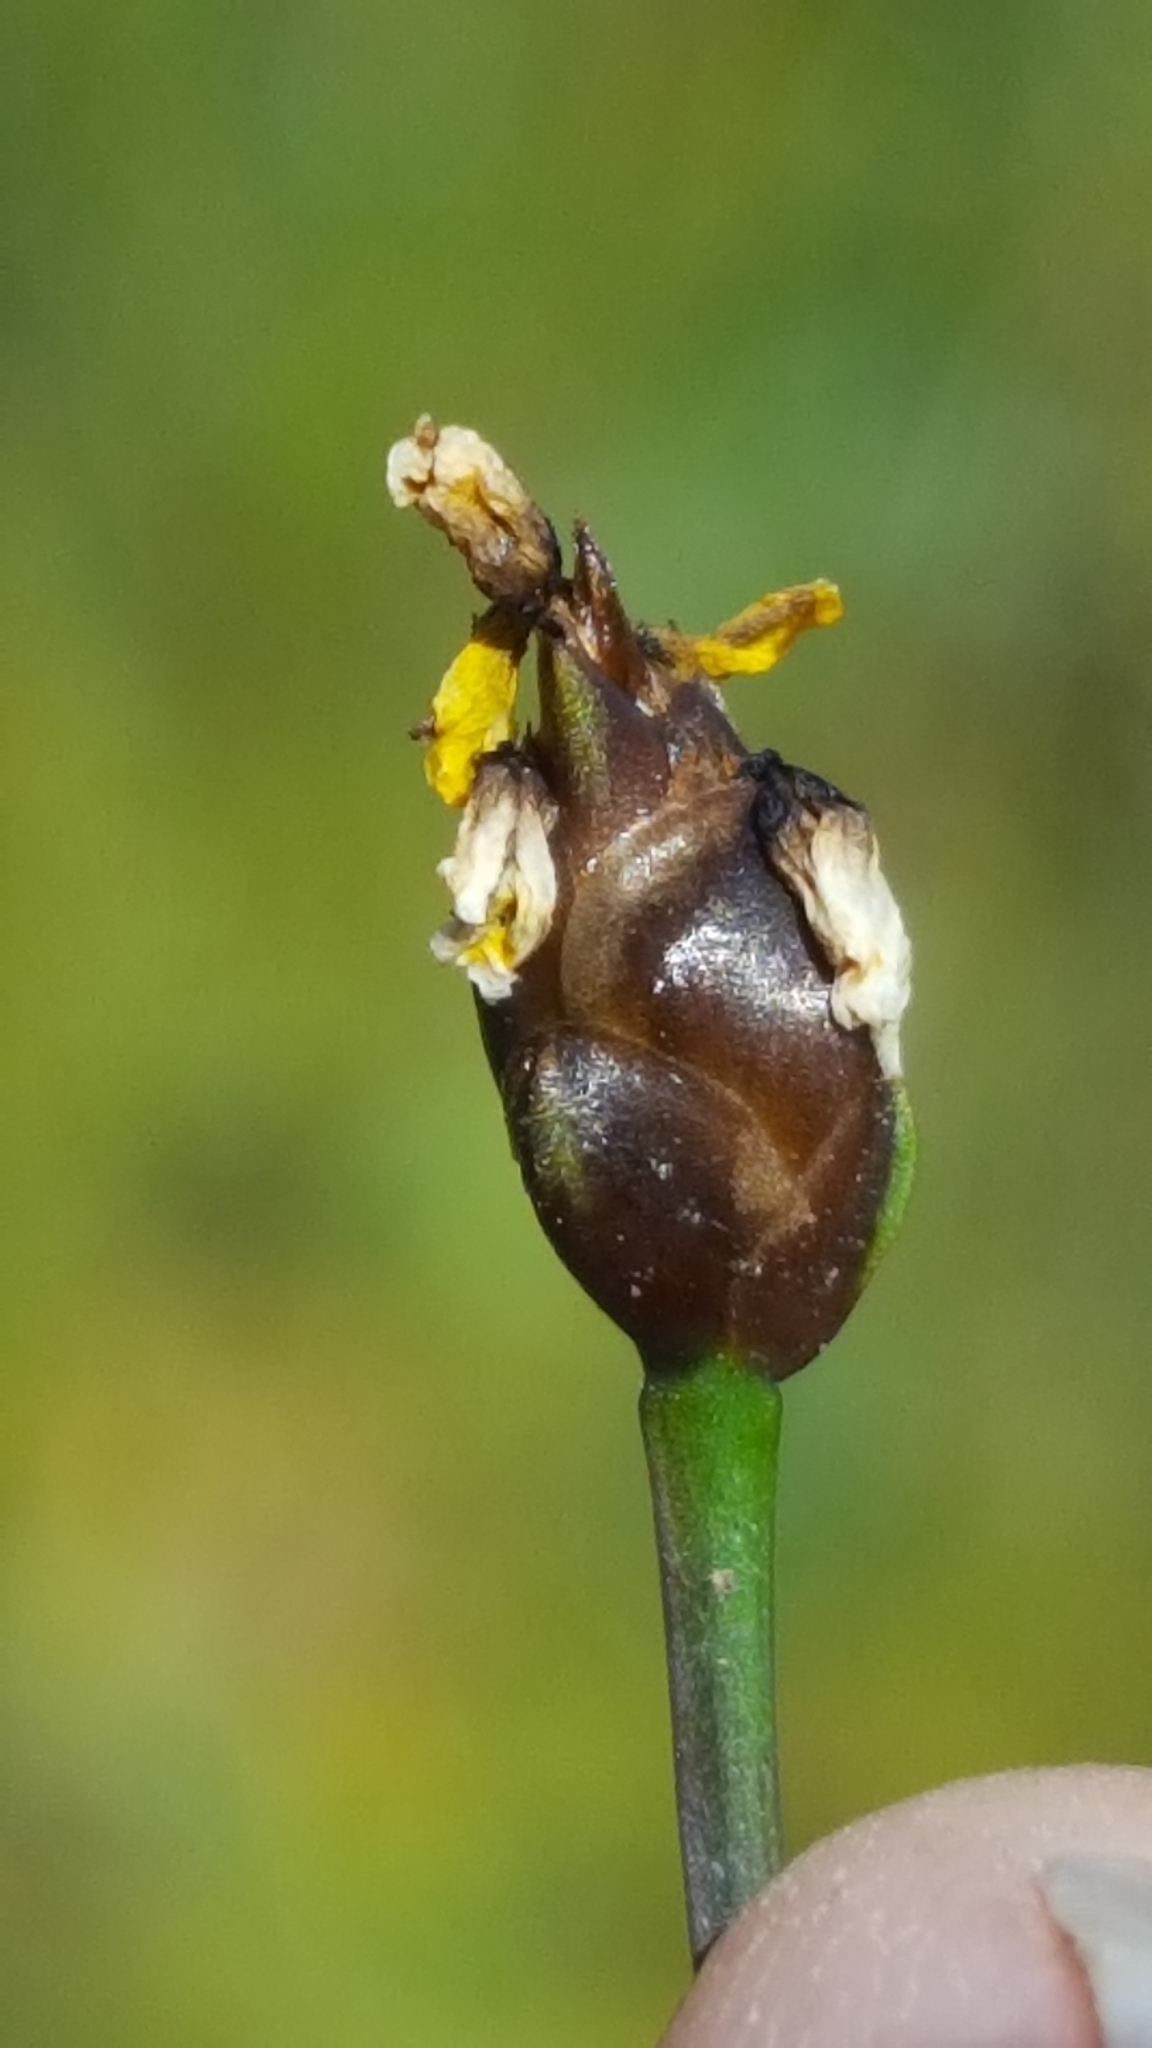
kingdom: Plantae
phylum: Tracheophyta
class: Liliopsida
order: Poales
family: Xyridaceae
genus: Xyris
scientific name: Xyris montana
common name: Northern yellow-eyed-grass
